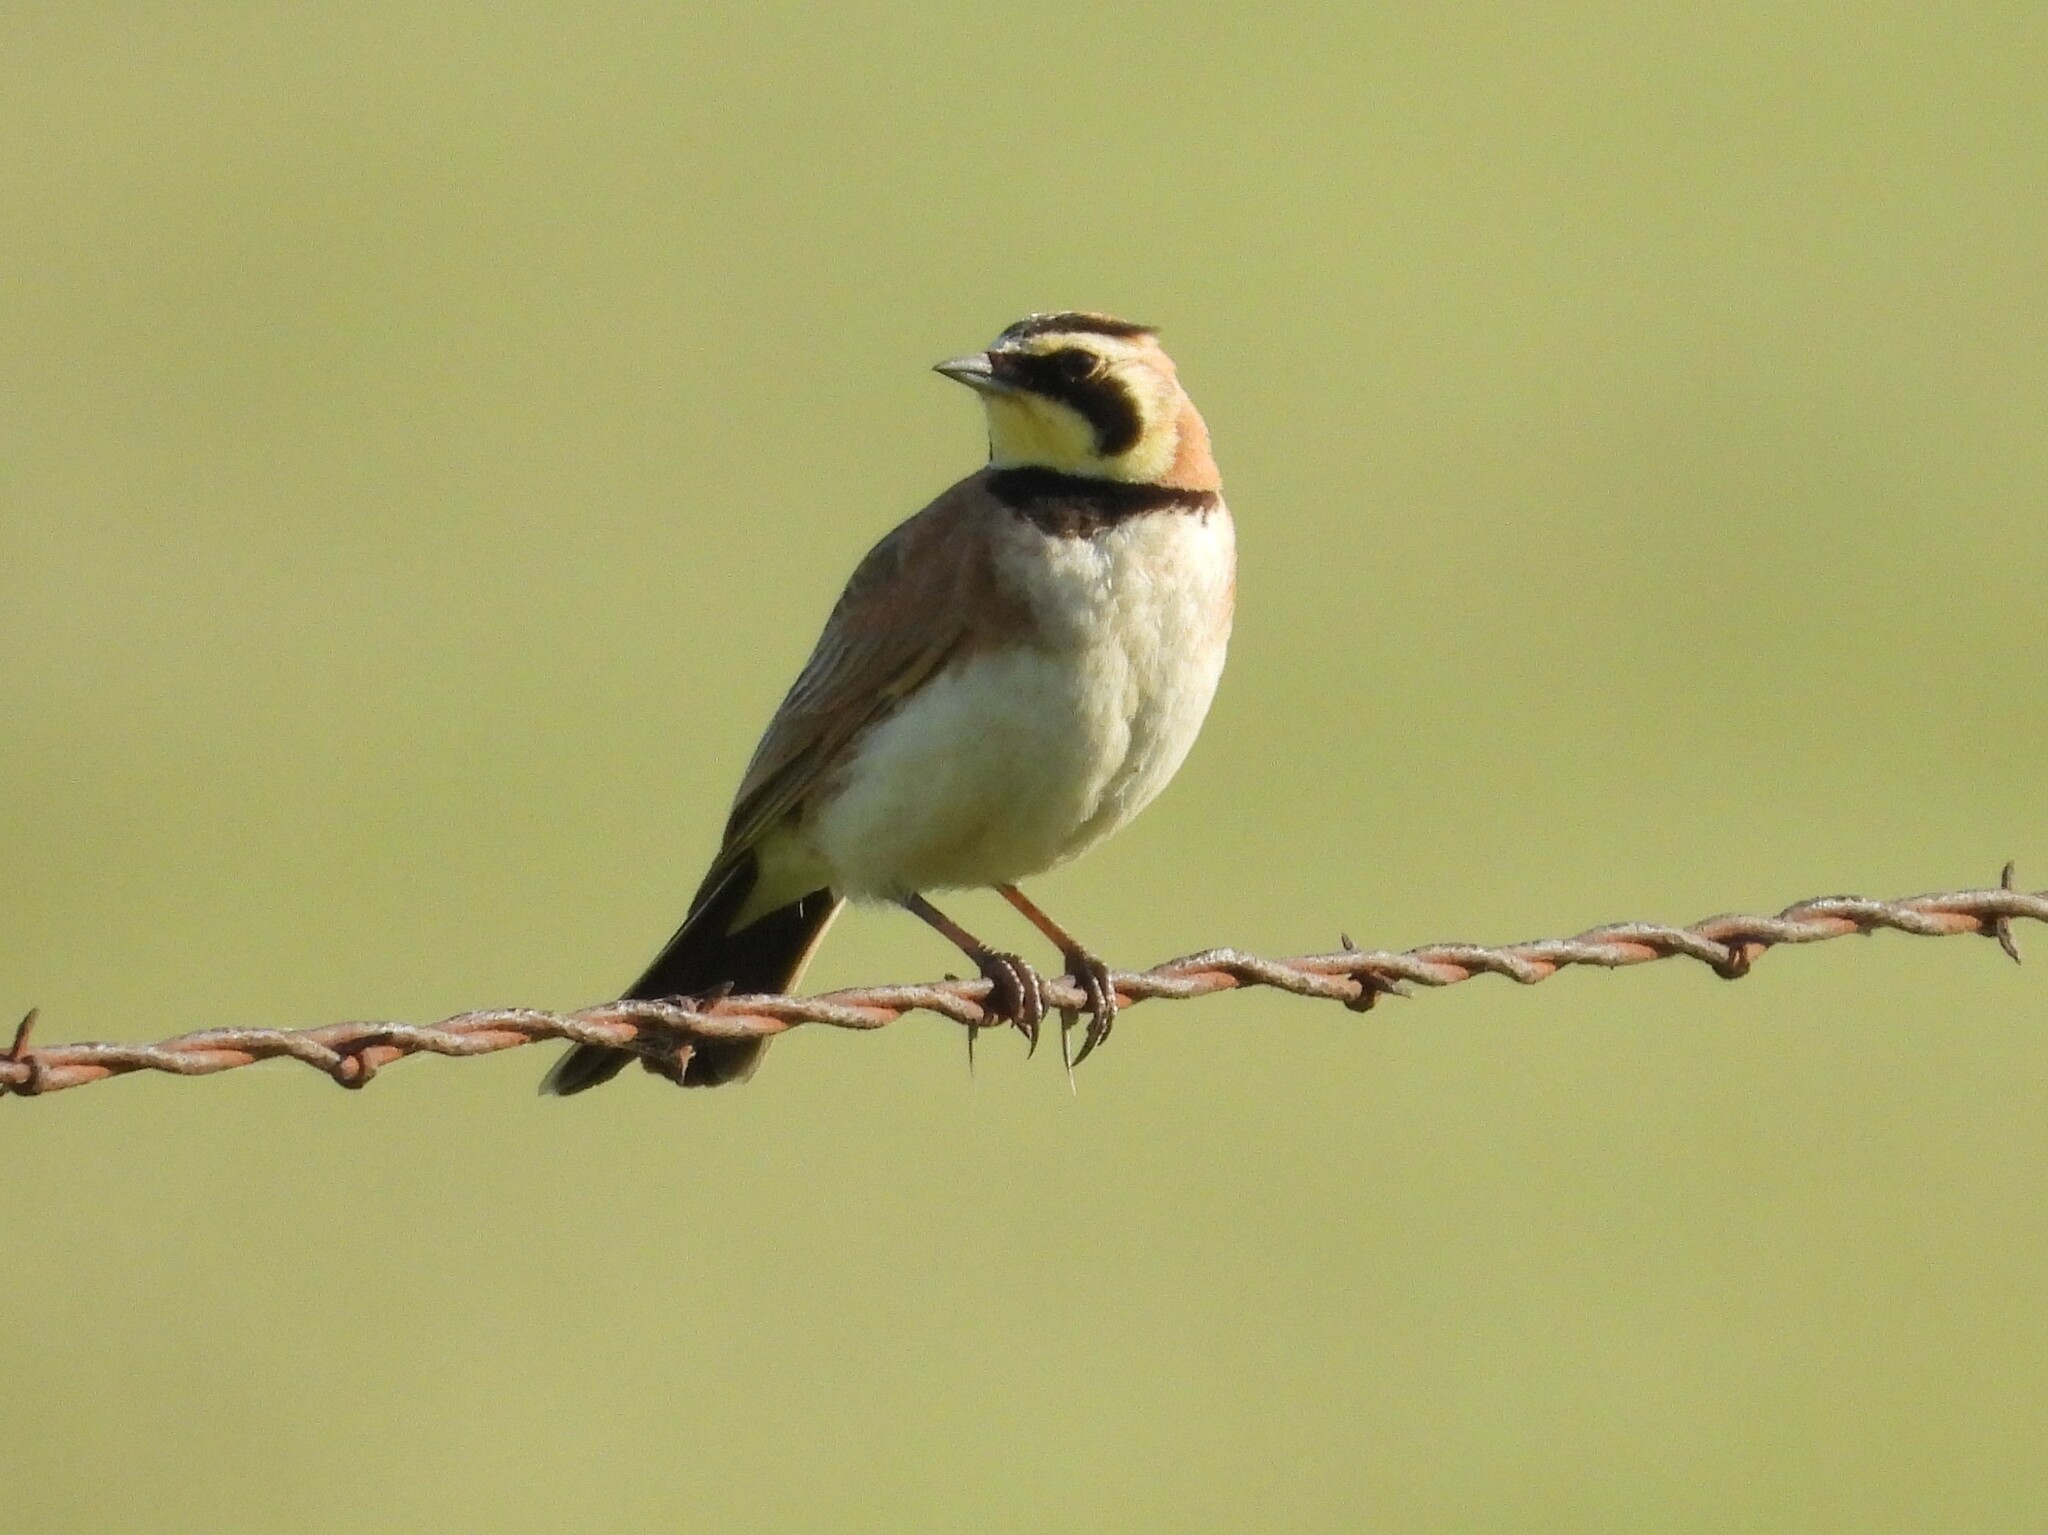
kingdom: Animalia
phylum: Chordata
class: Aves
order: Passeriformes
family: Alaudidae
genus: Eremophila
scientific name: Eremophila alpestris
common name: Horned lark
